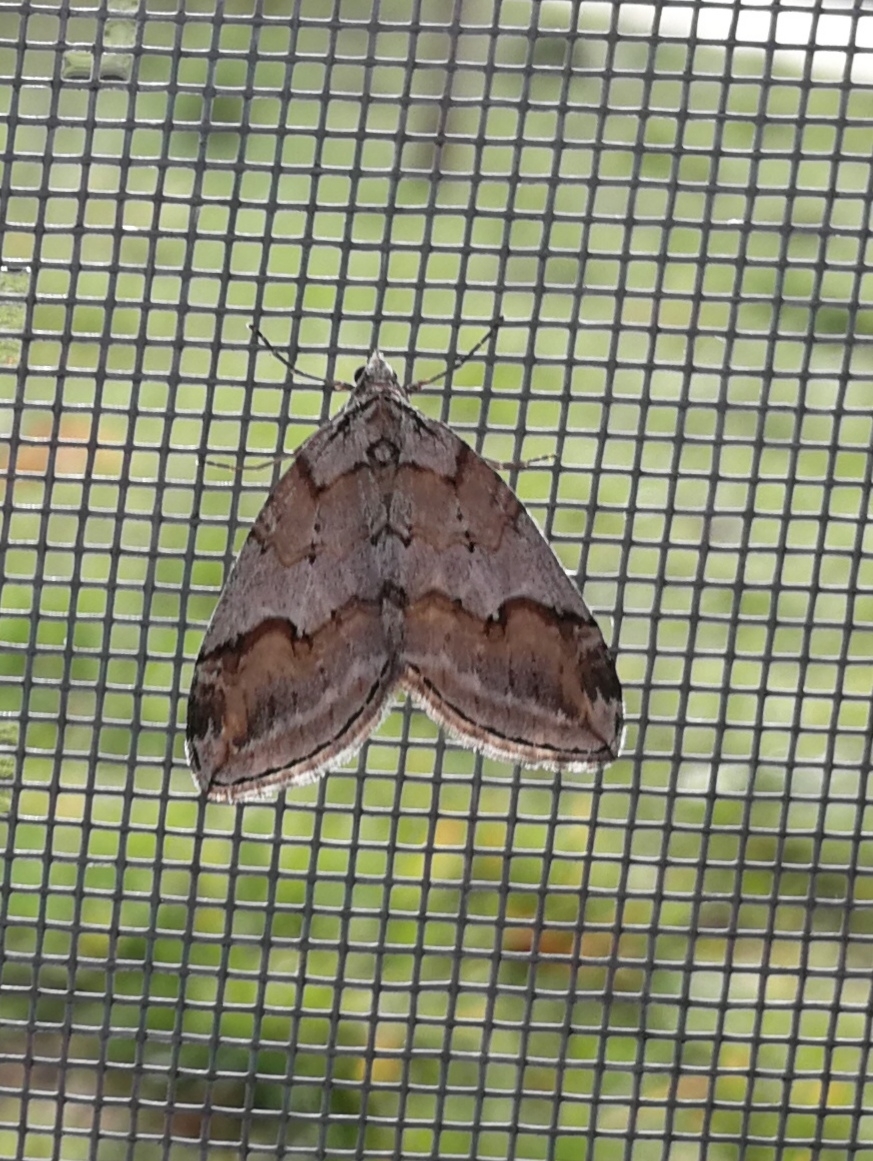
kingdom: Animalia
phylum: Arthropoda
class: Insecta
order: Lepidoptera
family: Geometridae
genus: Chesias
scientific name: Chesias rufata
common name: Broom-tip
